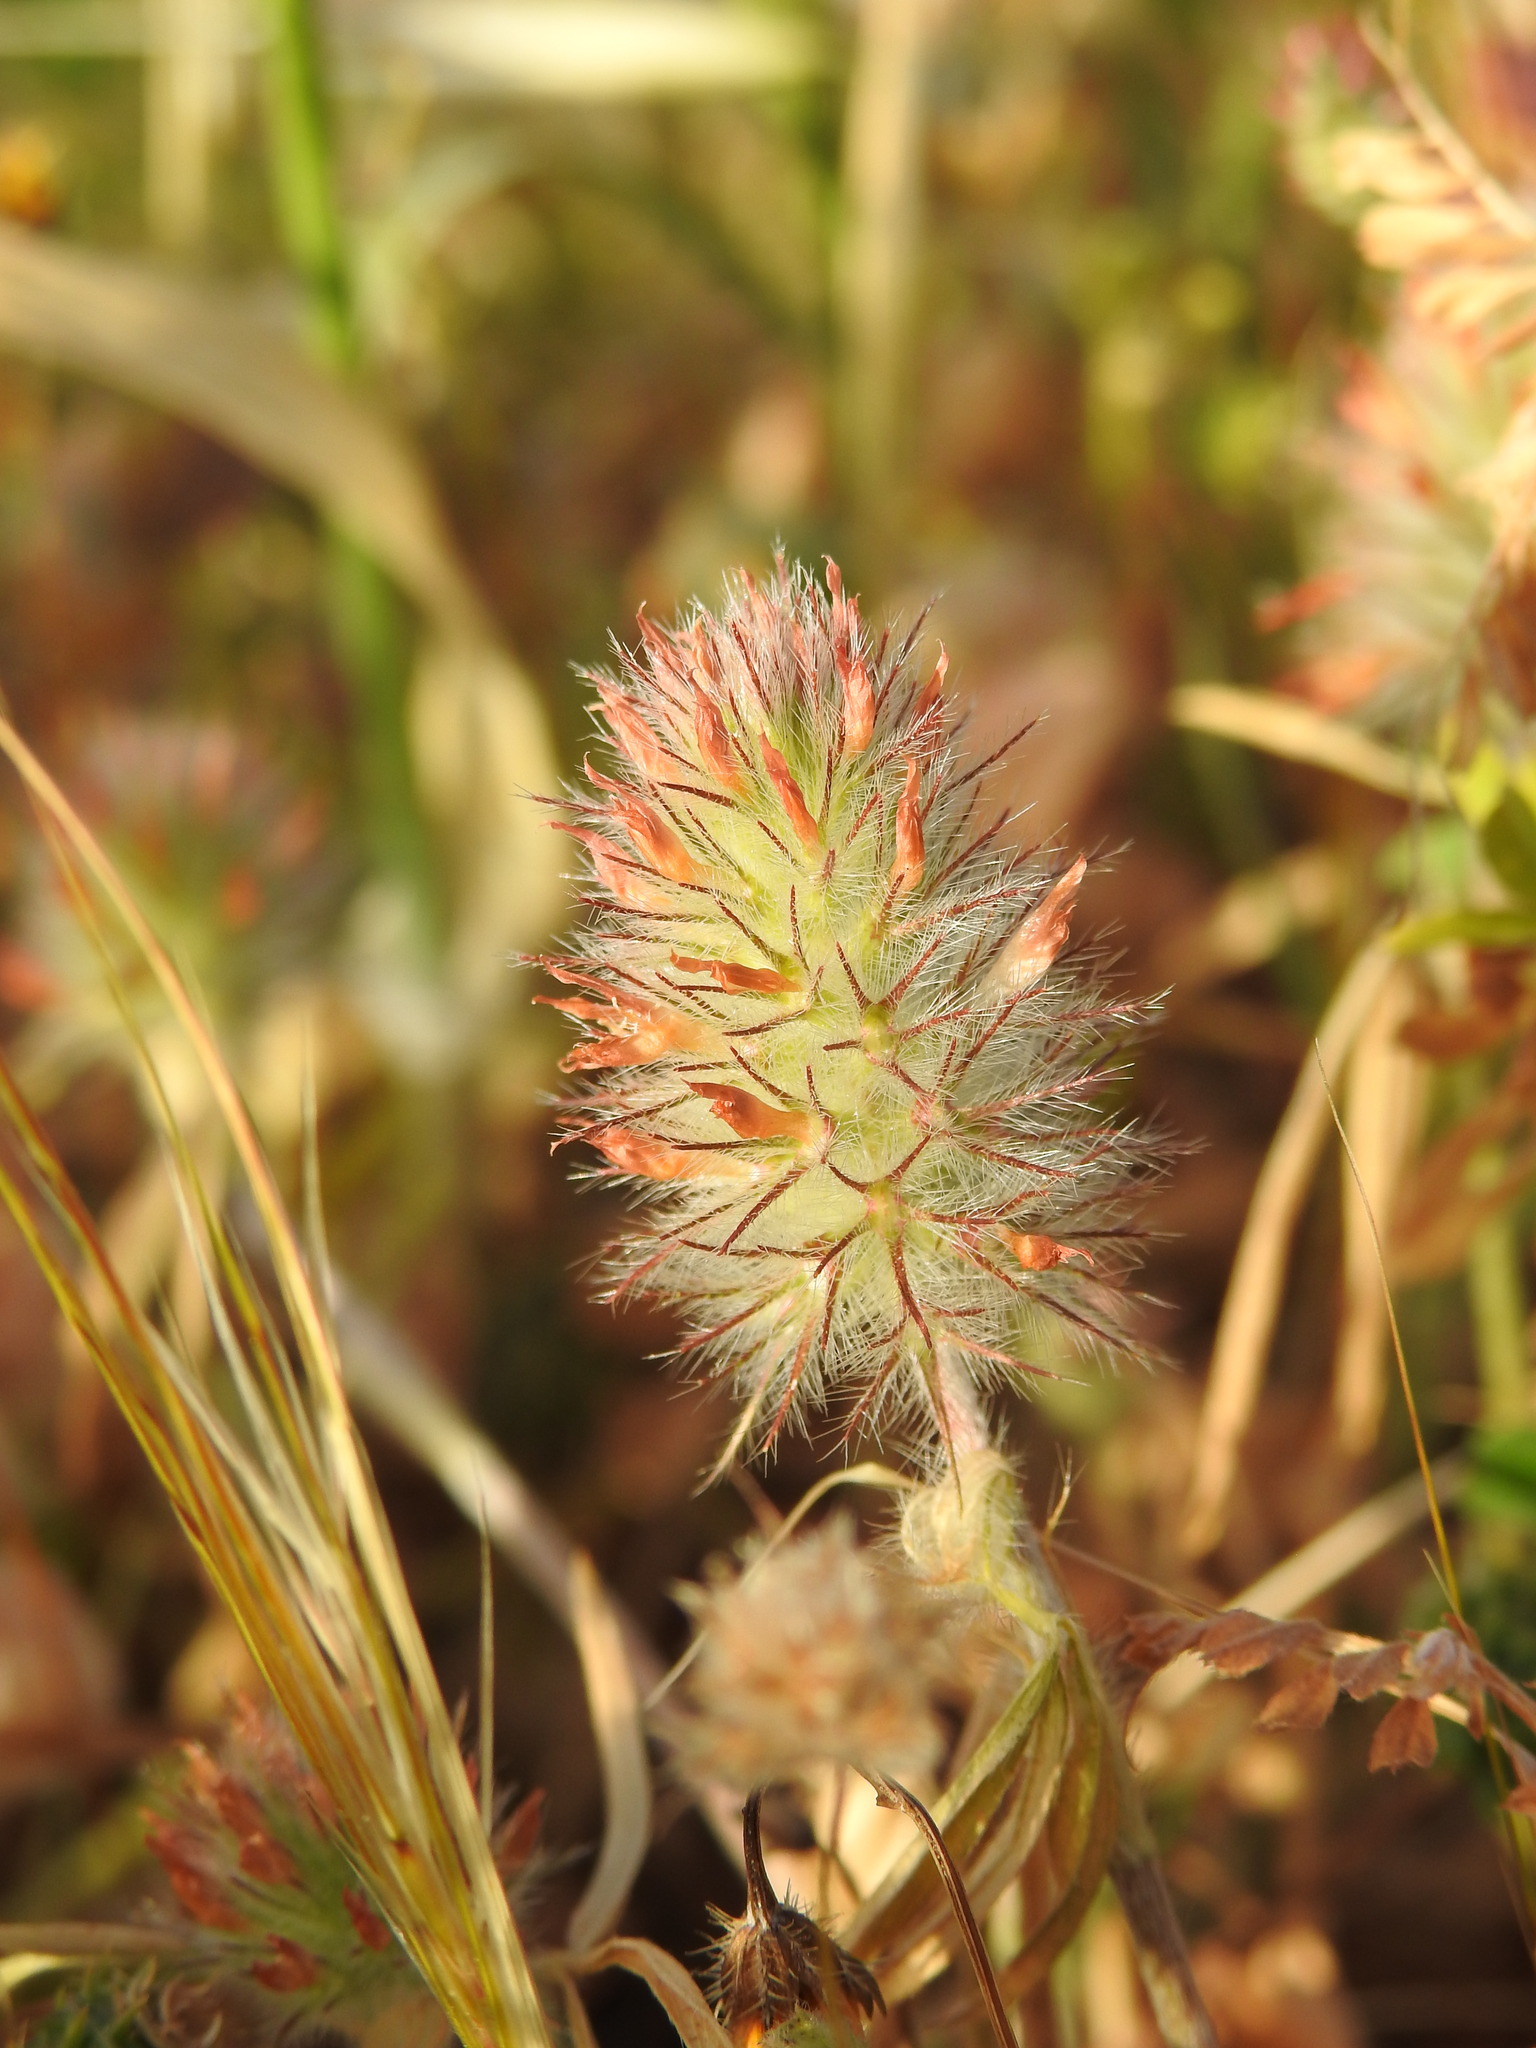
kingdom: Plantae
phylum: Tracheophyta
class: Magnoliopsida
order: Fabales
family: Fabaceae
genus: Trifolium
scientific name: Trifolium infamia-ponertii
